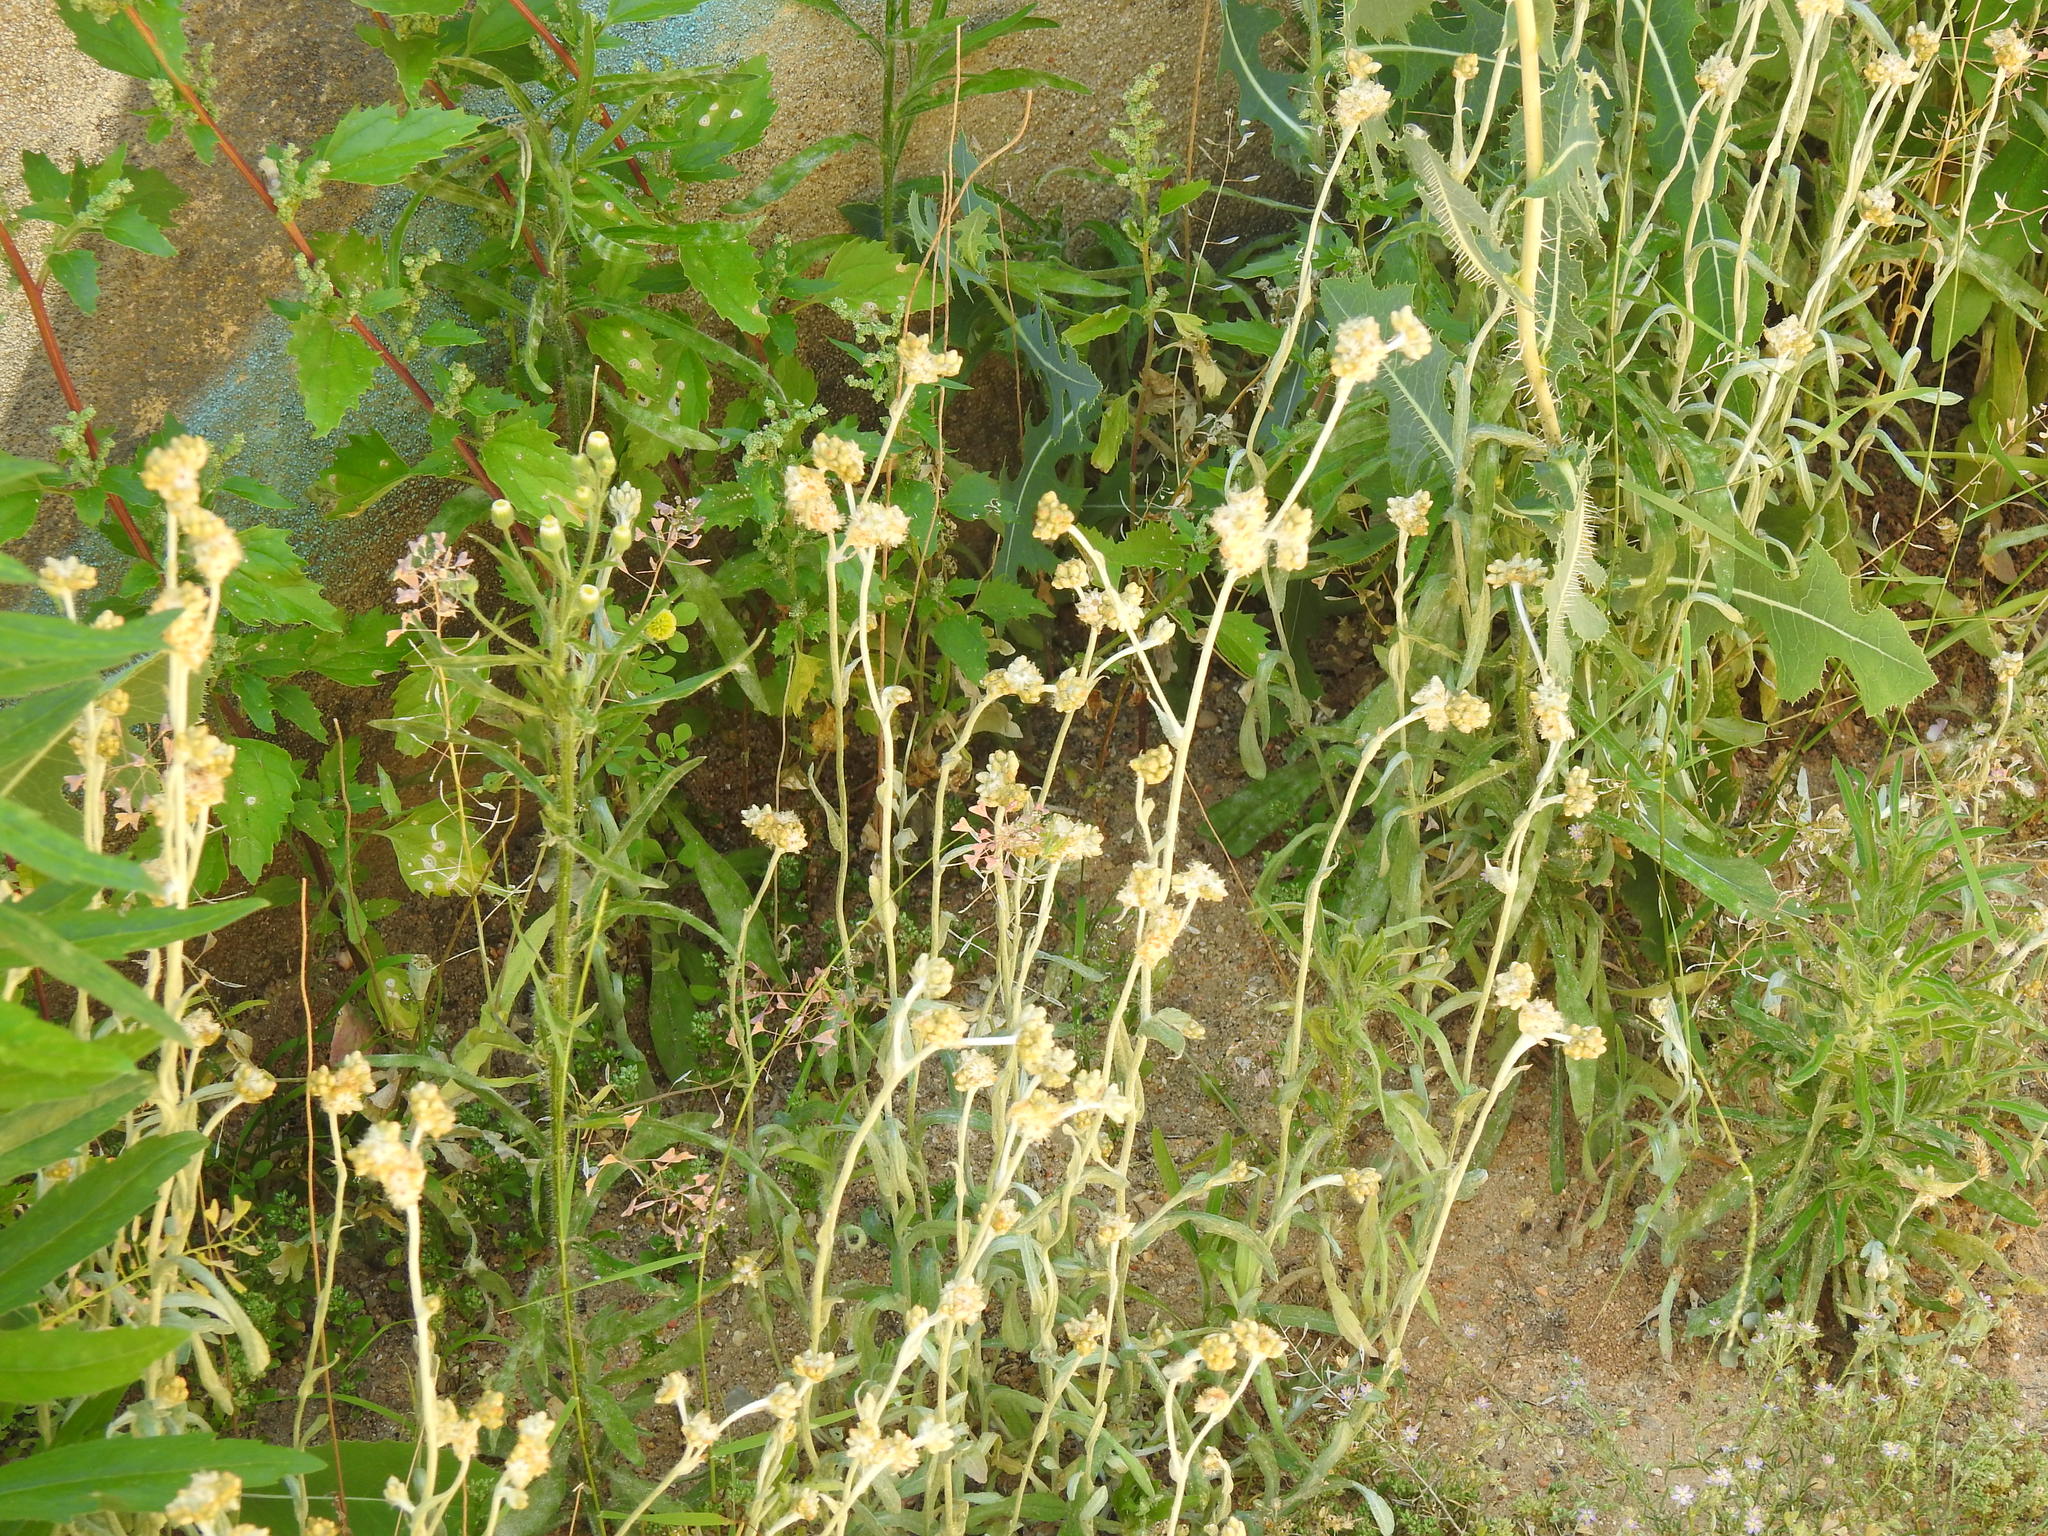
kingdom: Plantae
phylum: Tracheophyta
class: Magnoliopsida
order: Asterales
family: Asteraceae
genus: Helichrysum
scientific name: Helichrysum luteoalbum
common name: Daisy
